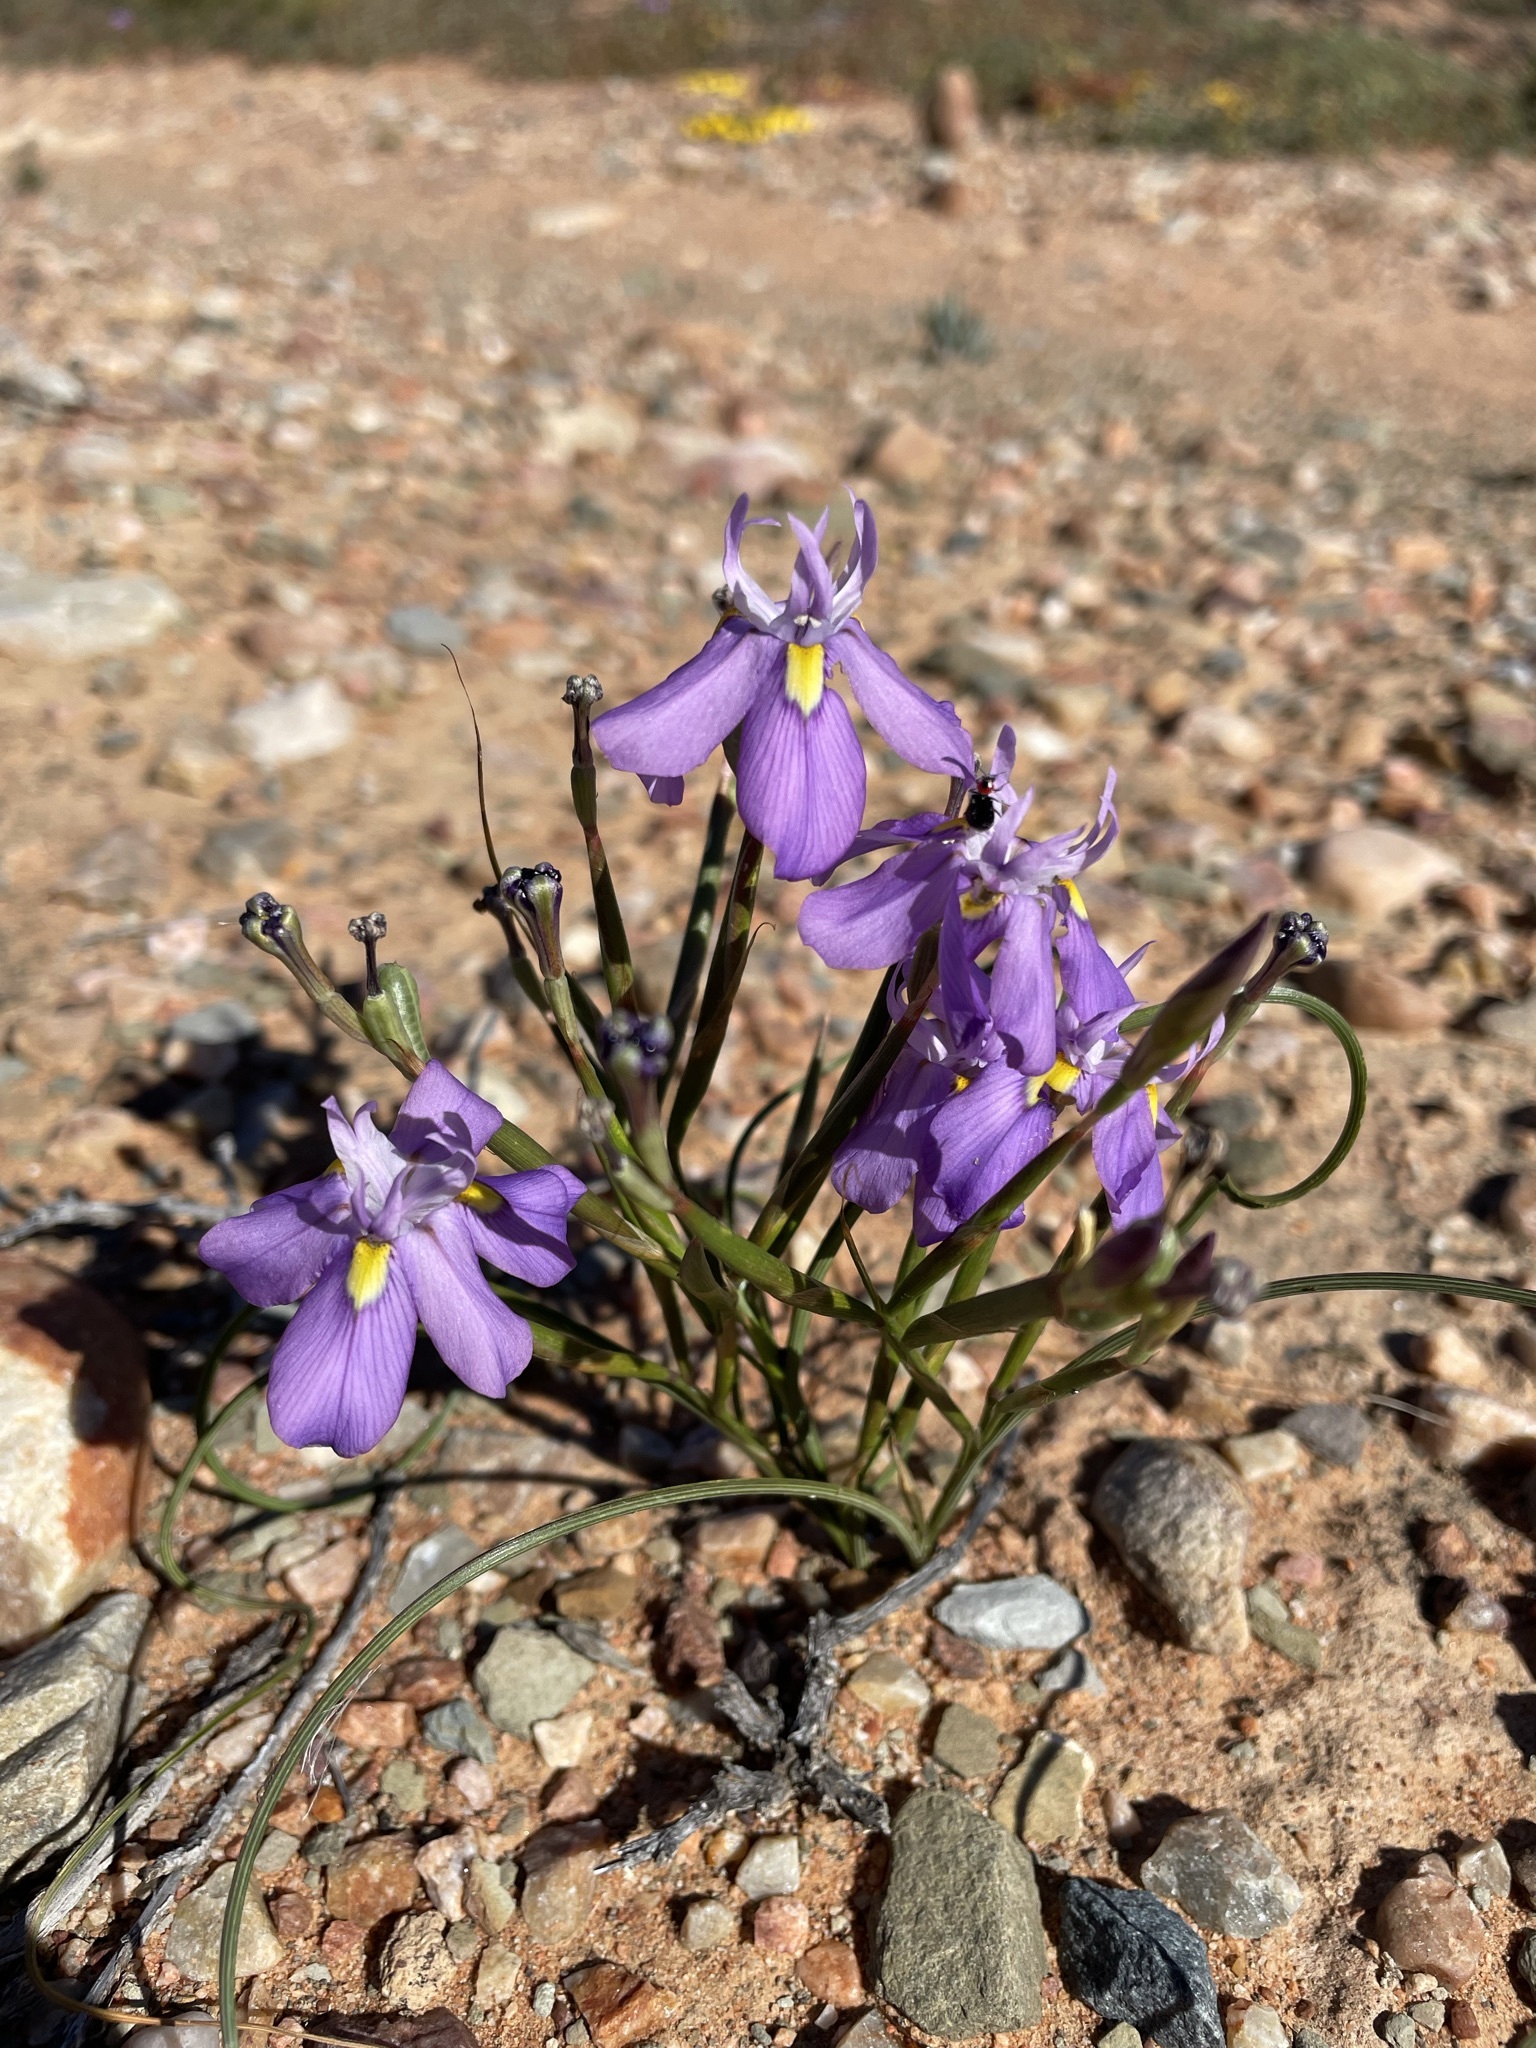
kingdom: Plantae
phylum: Tracheophyta
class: Liliopsida
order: Asparagales
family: Iridaceae
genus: Moraea
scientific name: Moraea bipartita
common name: Blue tulp
